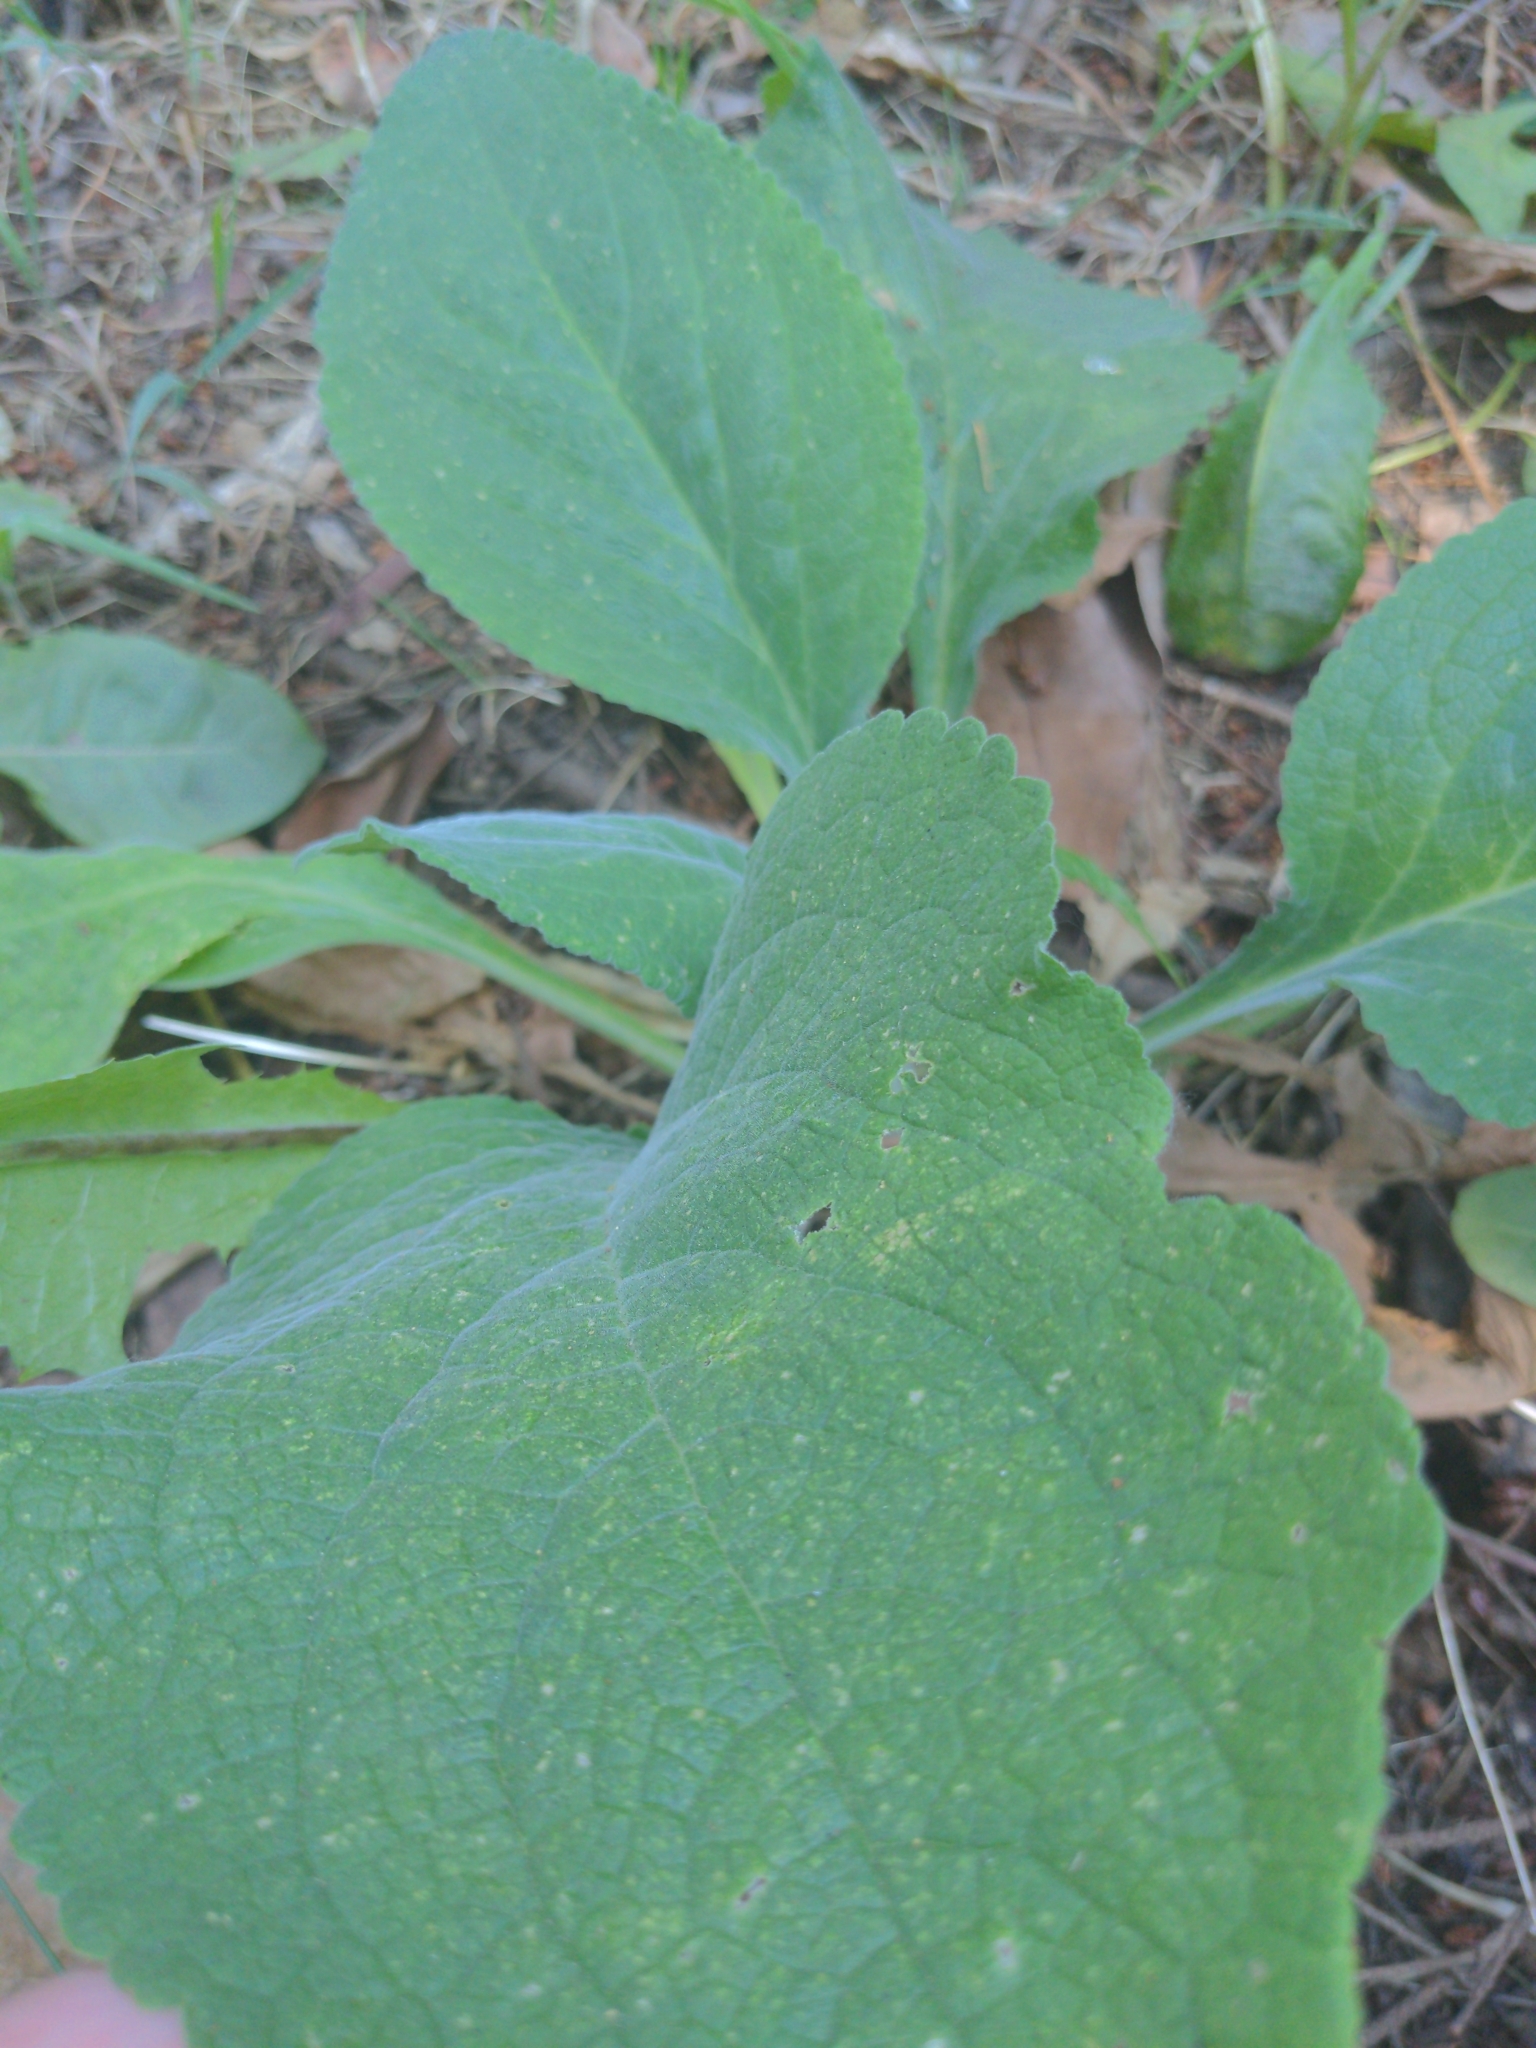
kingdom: Plantae
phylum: Tracheophyta
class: Magnoliopsida
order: Lamiales
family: Plantaginaceae
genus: Digitalis
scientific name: Digitalis purpurea
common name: Foxglove
